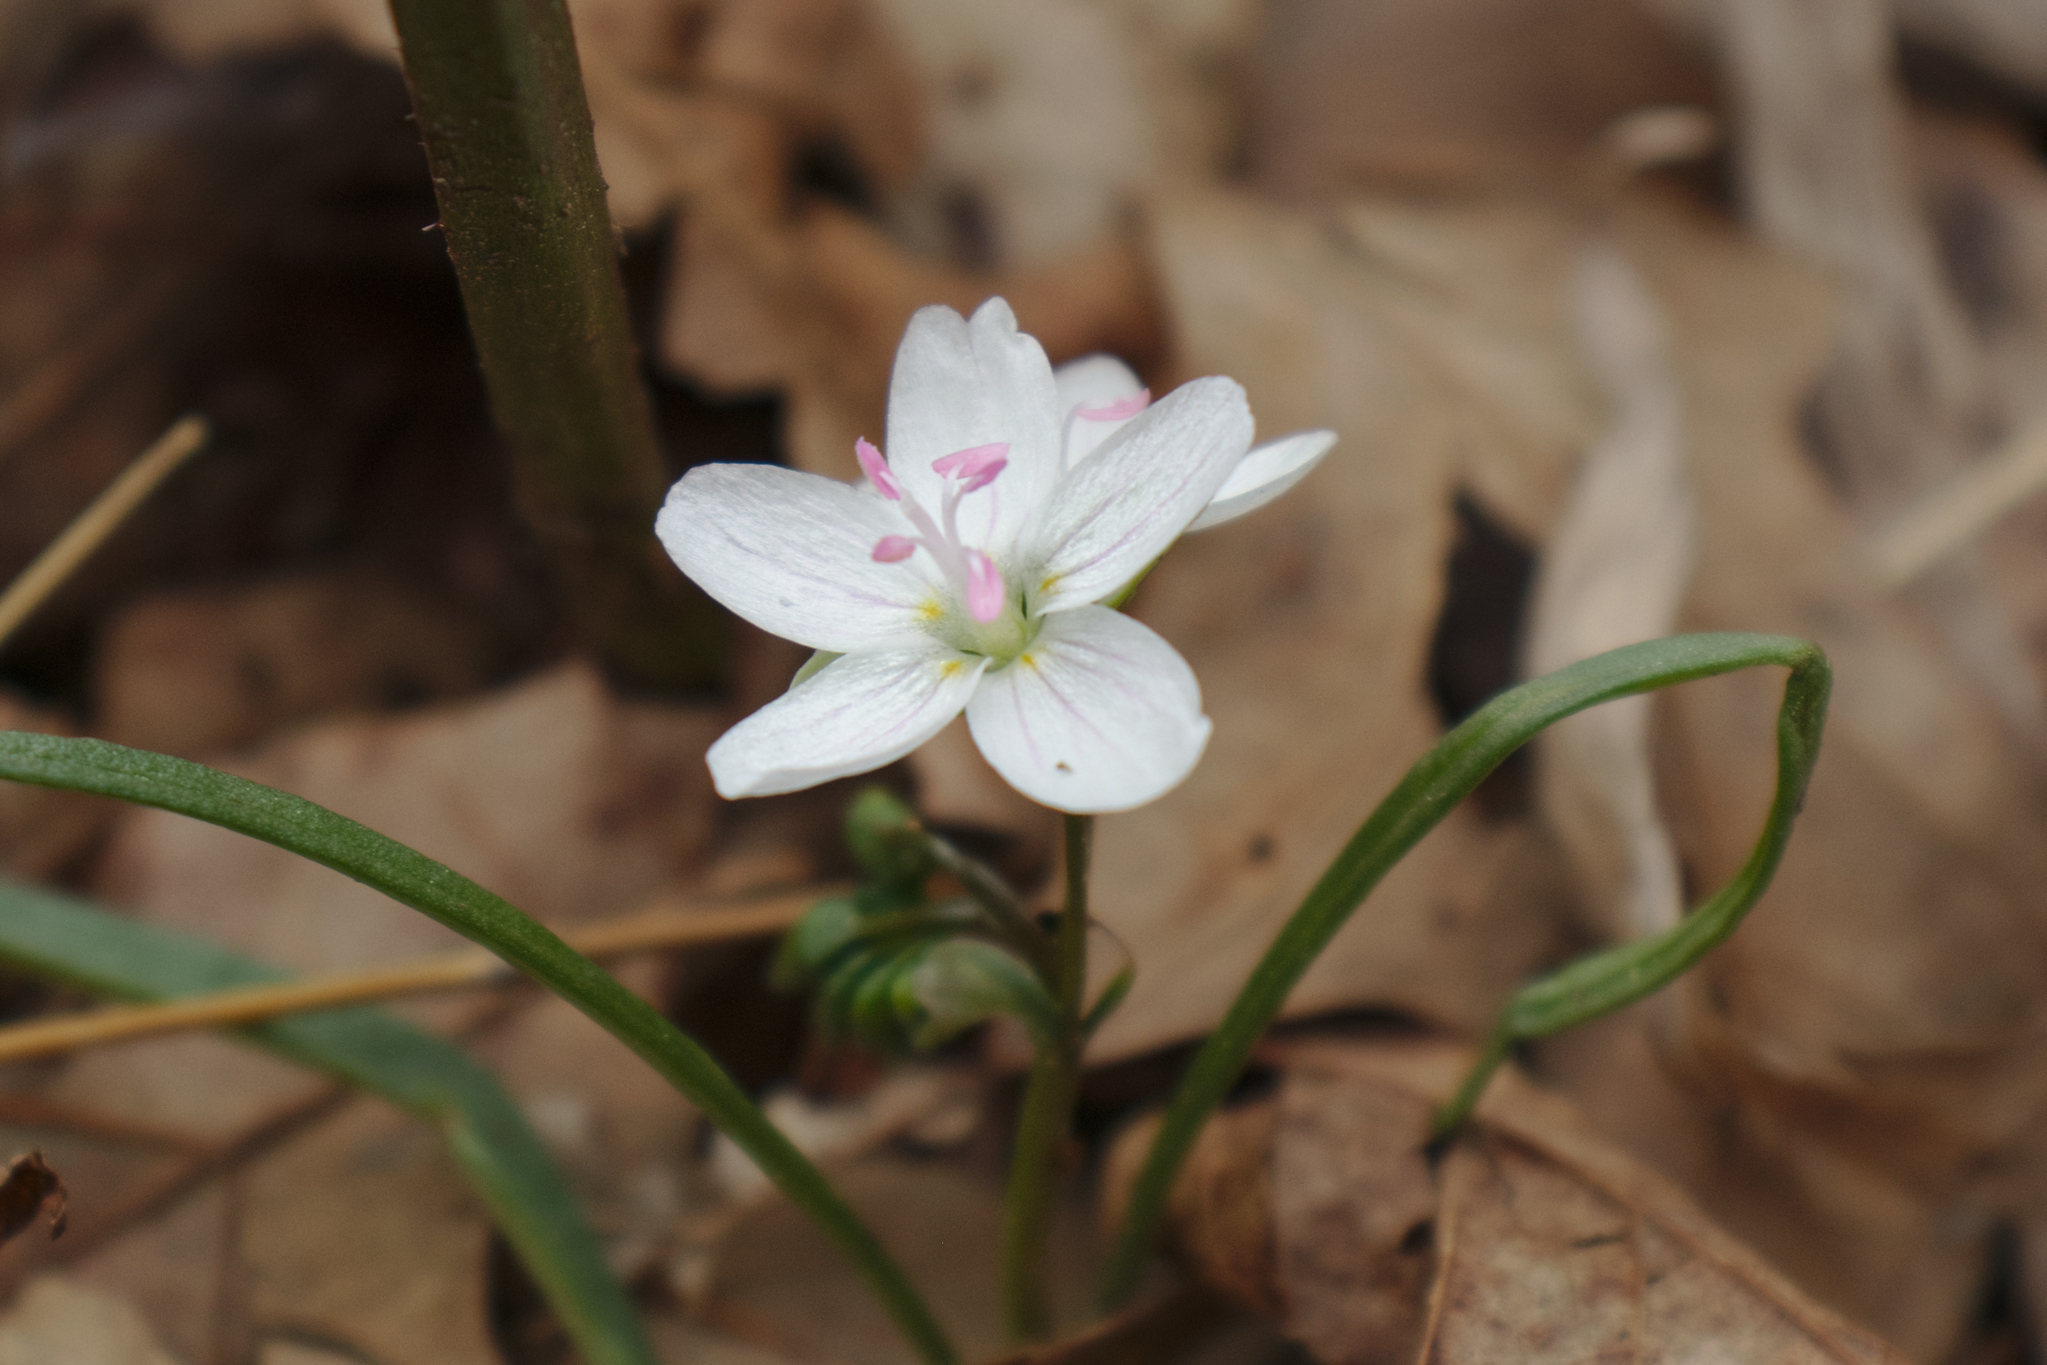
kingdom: Plantae
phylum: Tracheophyta
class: Magnoliopsida
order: Caryophyllales
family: Montiaceae
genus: Claytonia
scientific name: Claytonia virginica
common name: Virginia springbeauty
